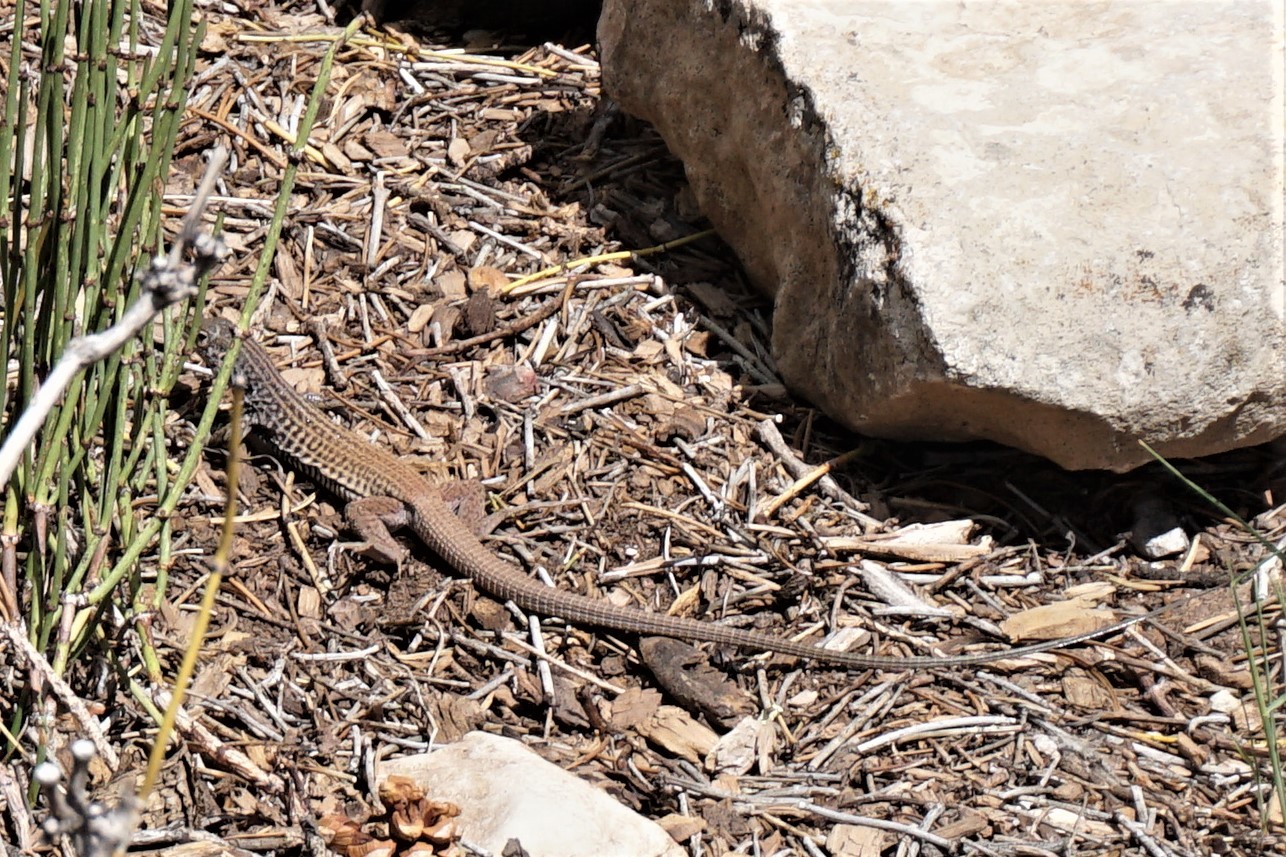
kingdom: Animalia
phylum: Chordata
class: Squamata
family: Teiidae
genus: Aspidoscelis
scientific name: Aspidoscelis tigris
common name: Tiger whiptail
